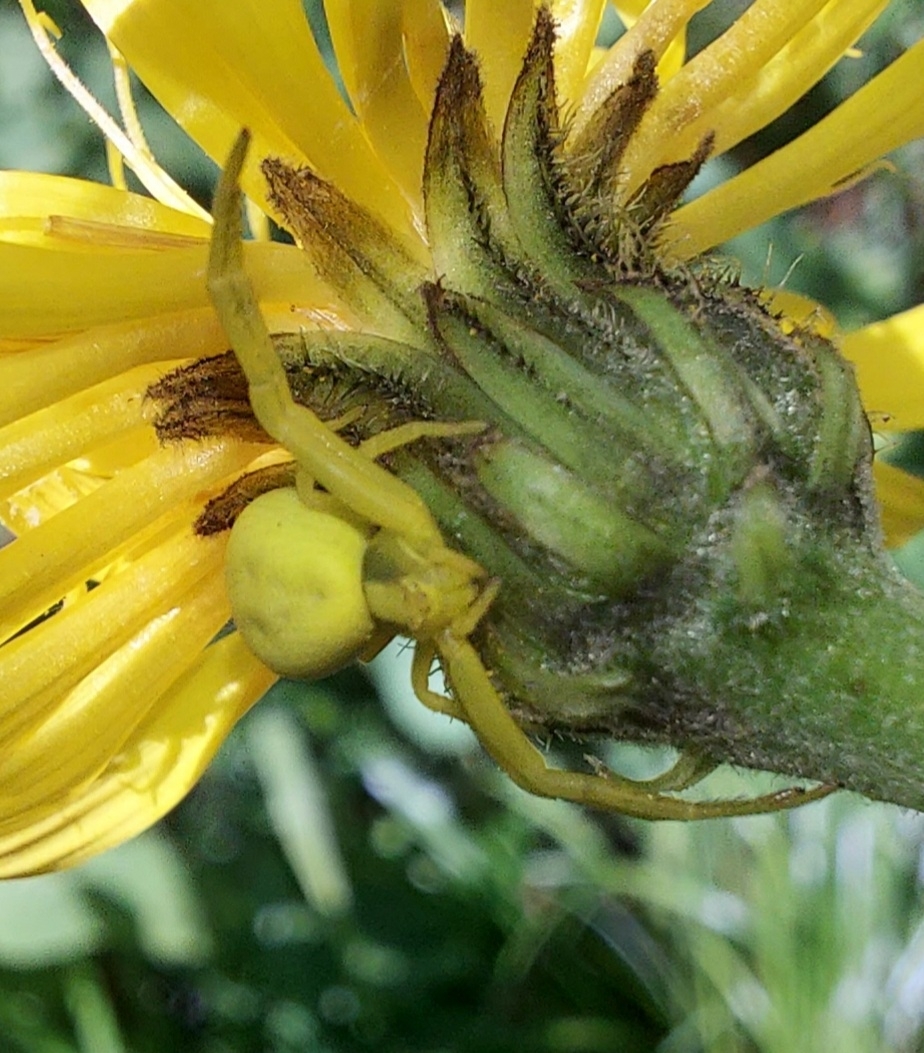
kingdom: Animalia
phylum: Arthropoda
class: Arachnida
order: Araneae
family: Thomisidae
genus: Misumena
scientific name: Misumena vatia
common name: Goldenrod crab spider
